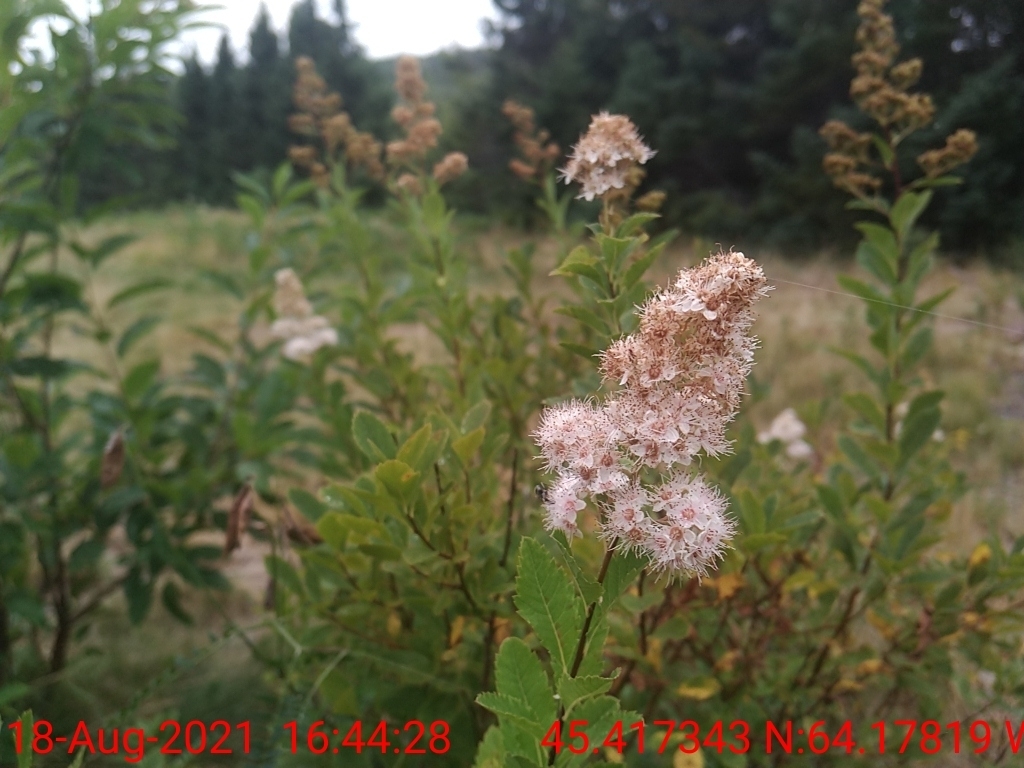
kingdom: Plantae
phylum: Tracheophyta
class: Magnoliopsida
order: Rosales
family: Rosaceae
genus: Spiraea
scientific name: Spiraea alba
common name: Pale bridewort
